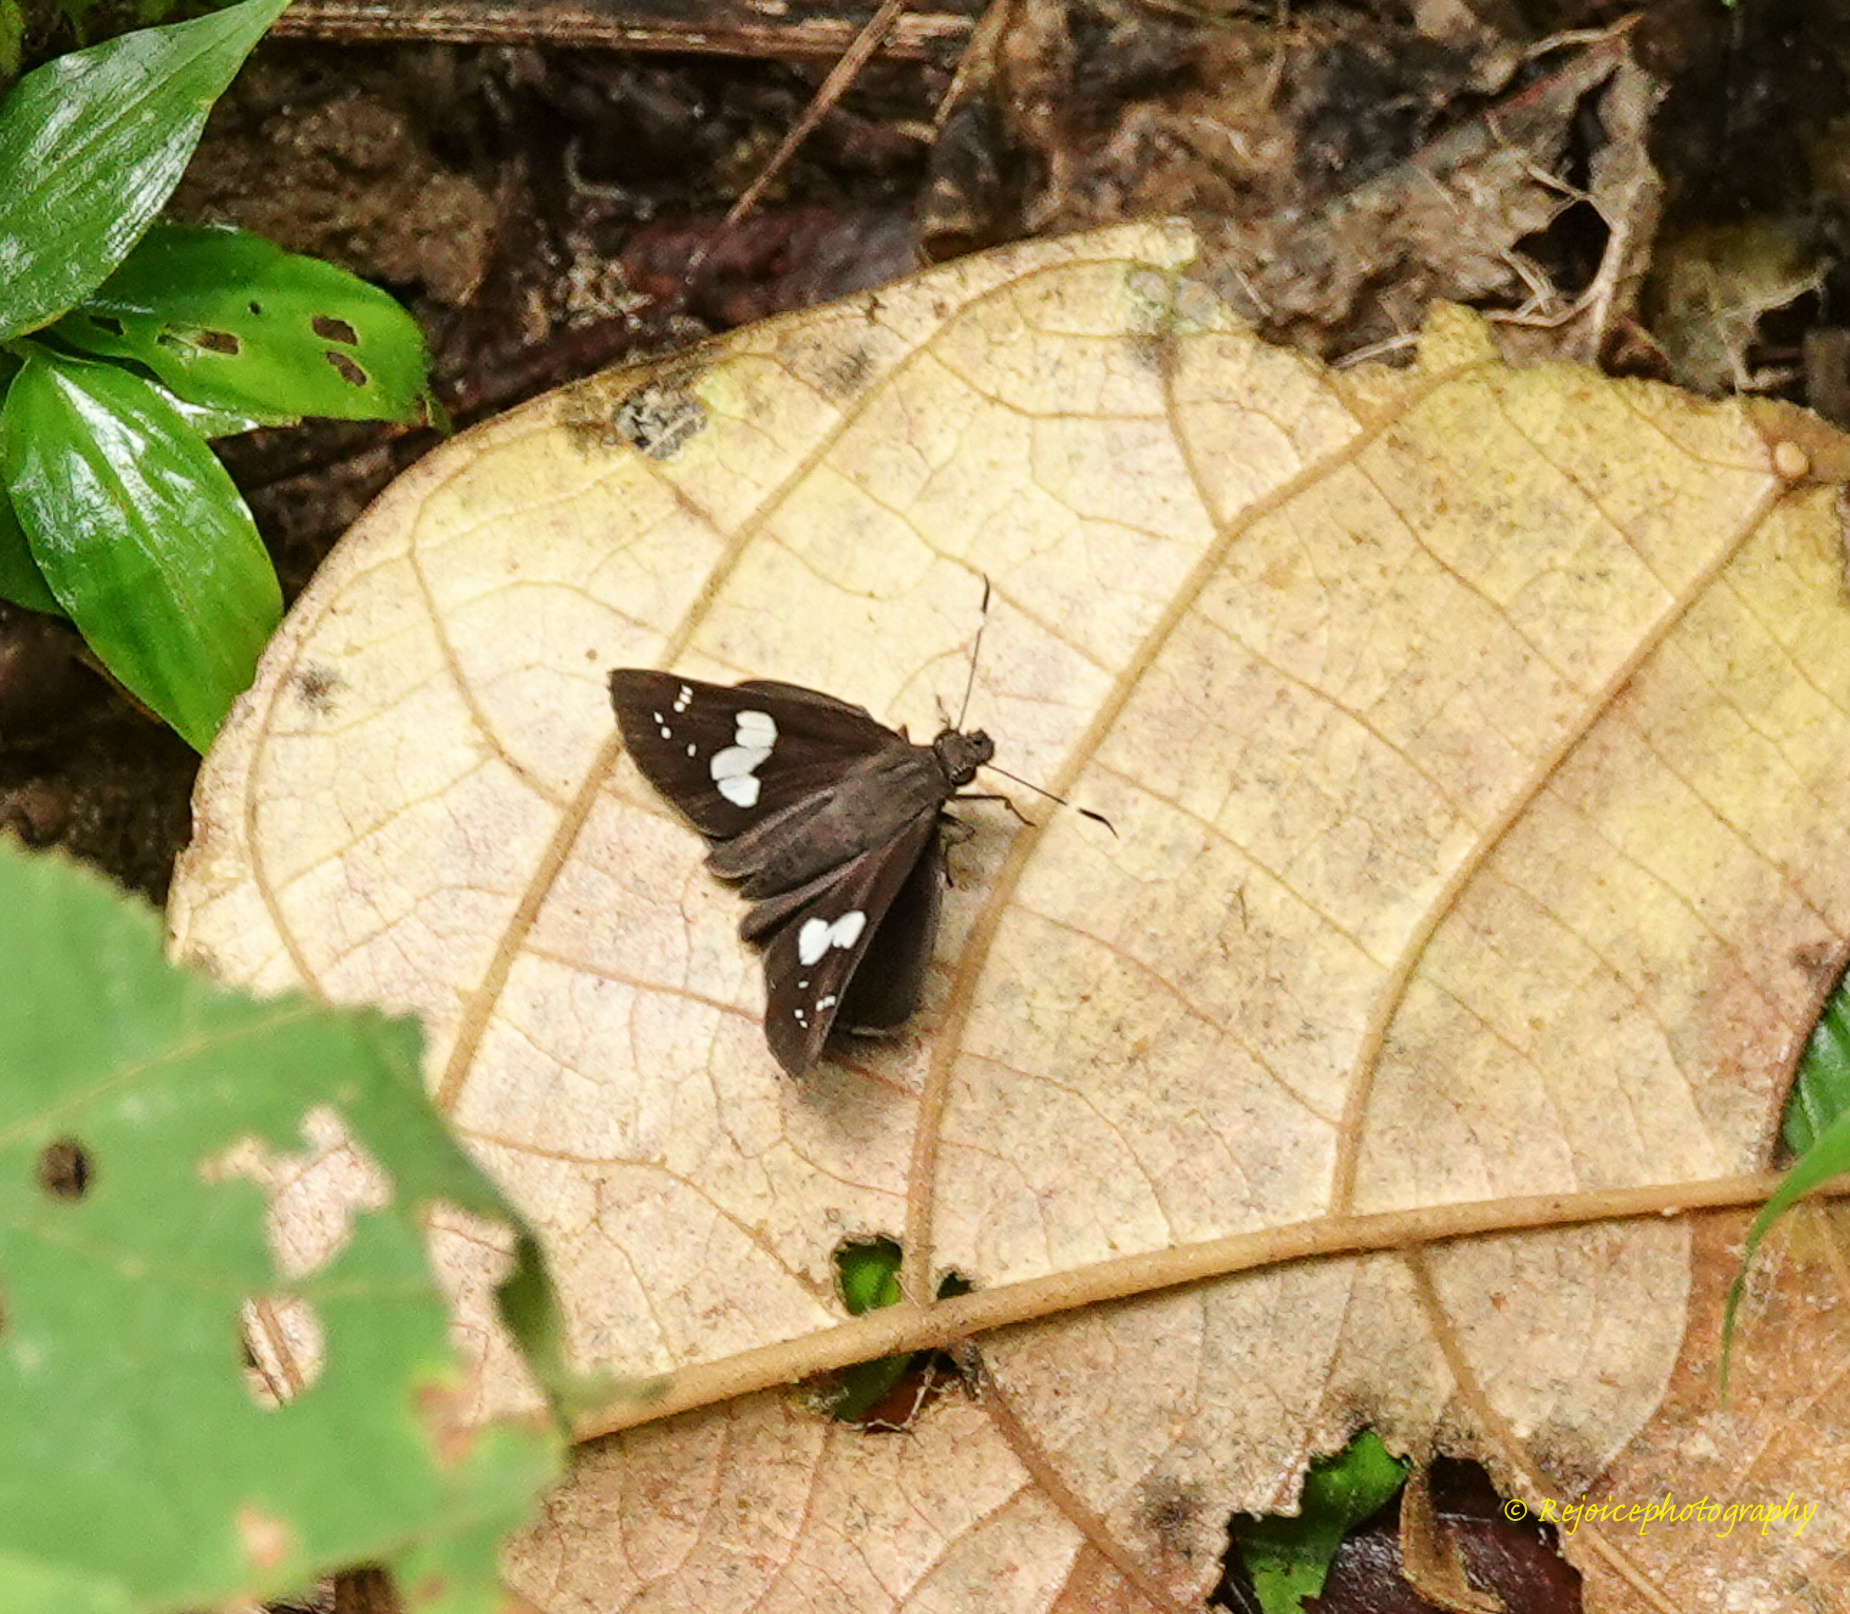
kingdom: Animalia
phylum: Arthropoda
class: Insecta
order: Lepidoptera
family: Hesperiidae
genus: Notocrypta
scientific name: Notocrypta feisthamelii
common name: Spotted demon
